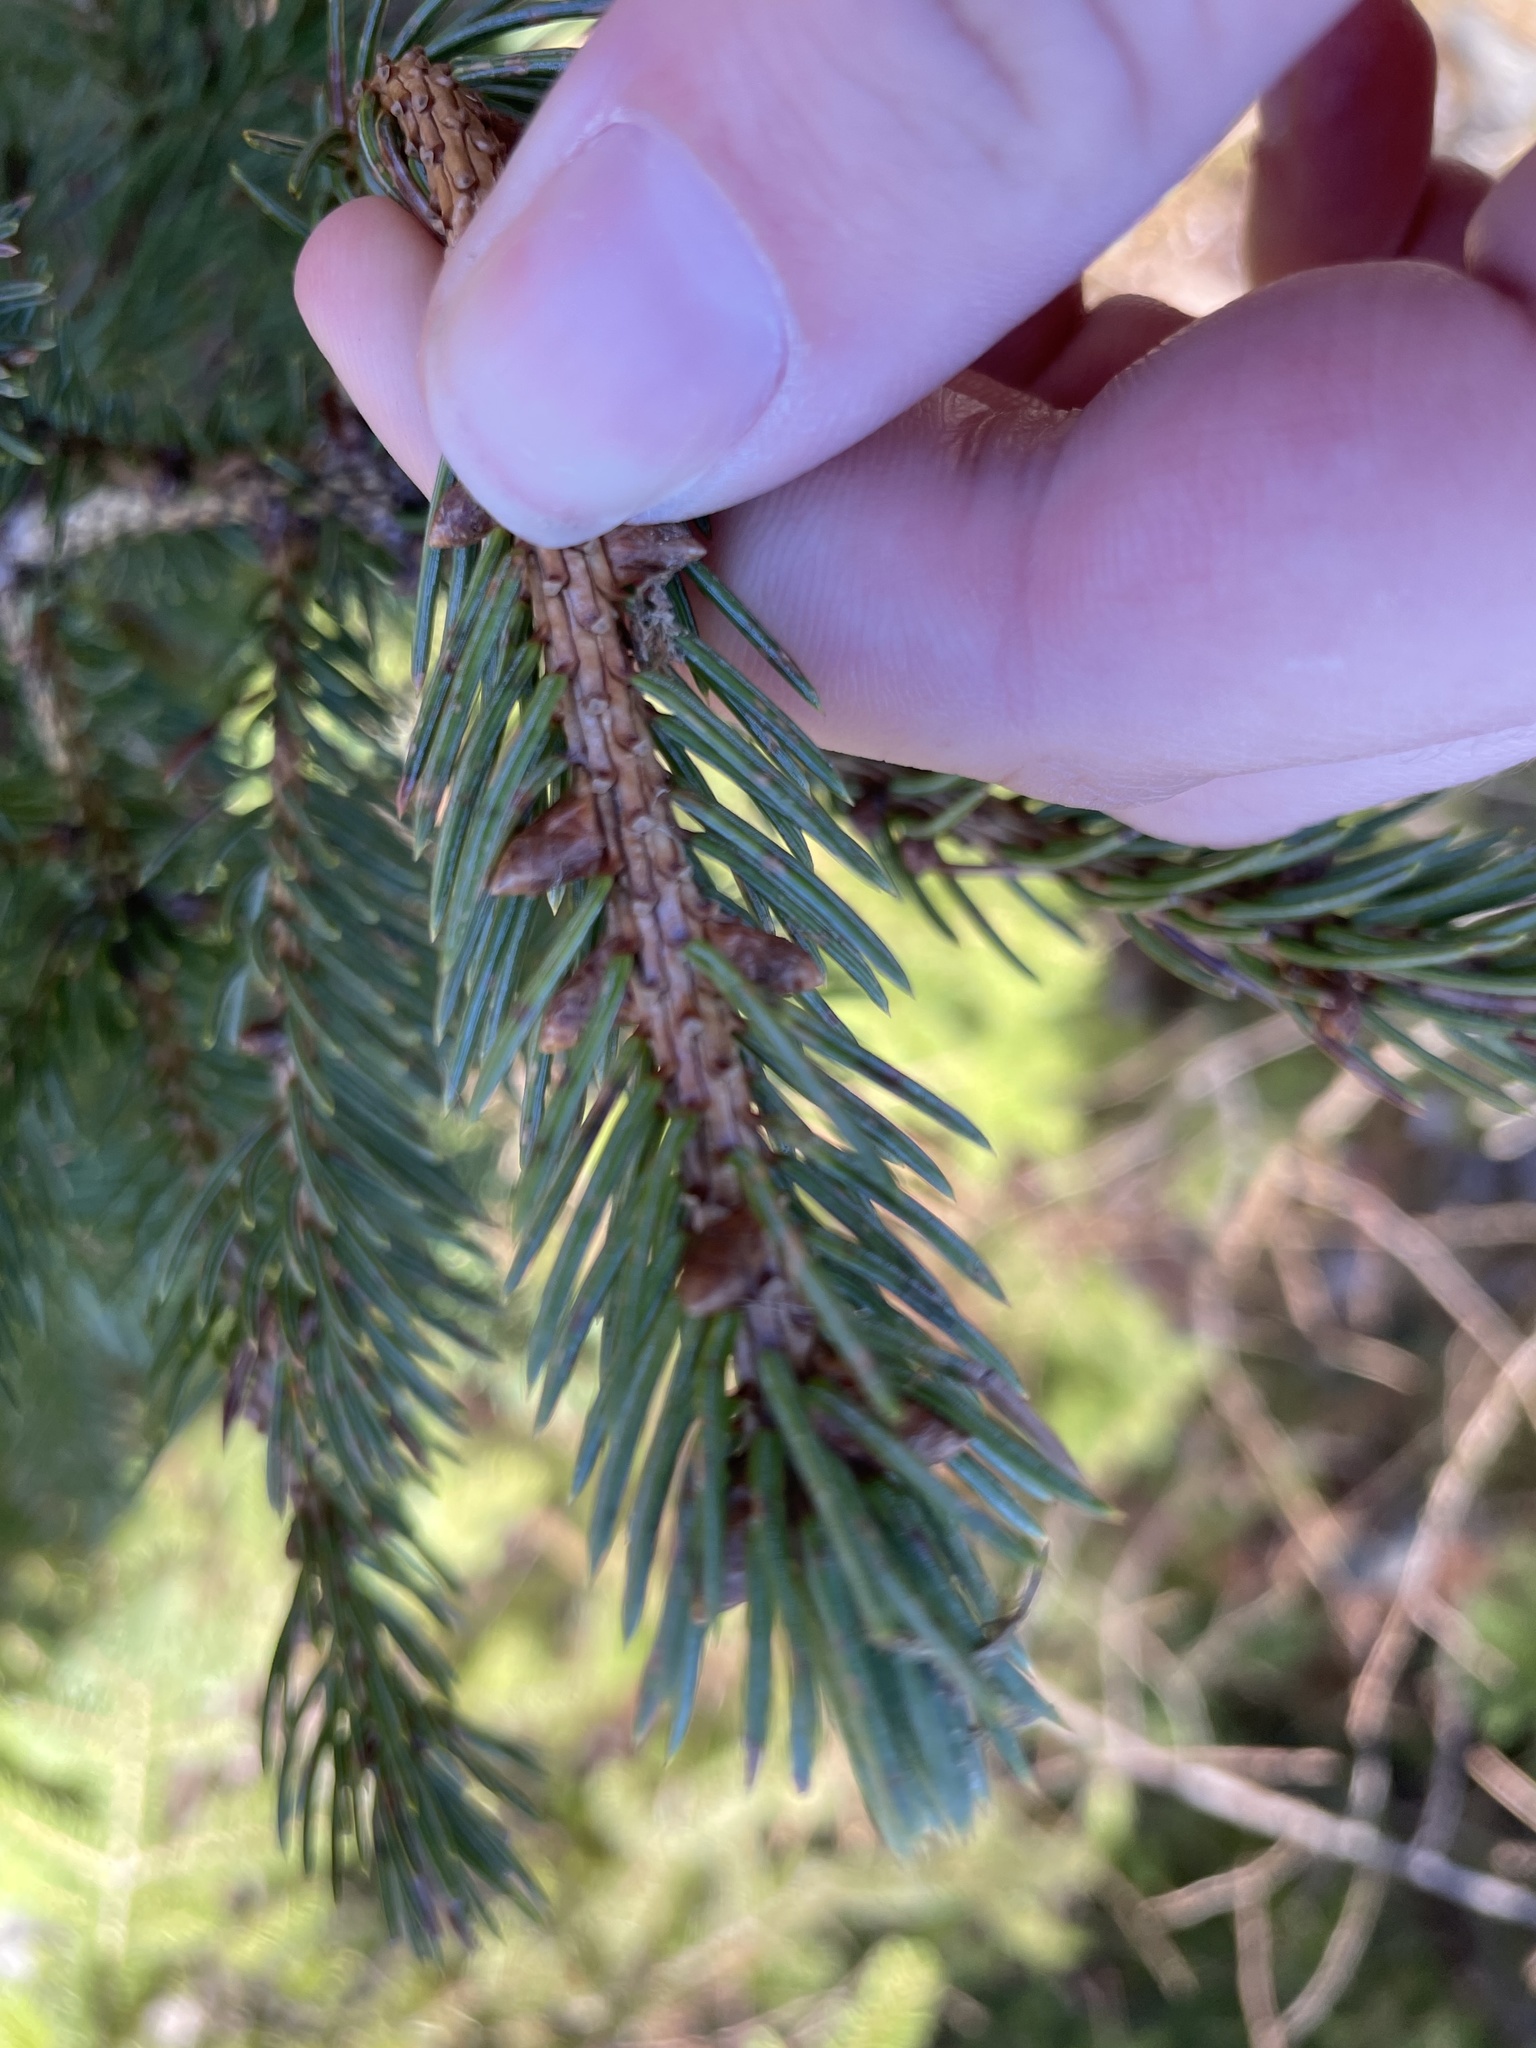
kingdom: Plantae
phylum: Tracheophyta
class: Pinopsida
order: Pinales
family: Pinaceae
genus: Picea
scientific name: Picea glauca
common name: White spruce
